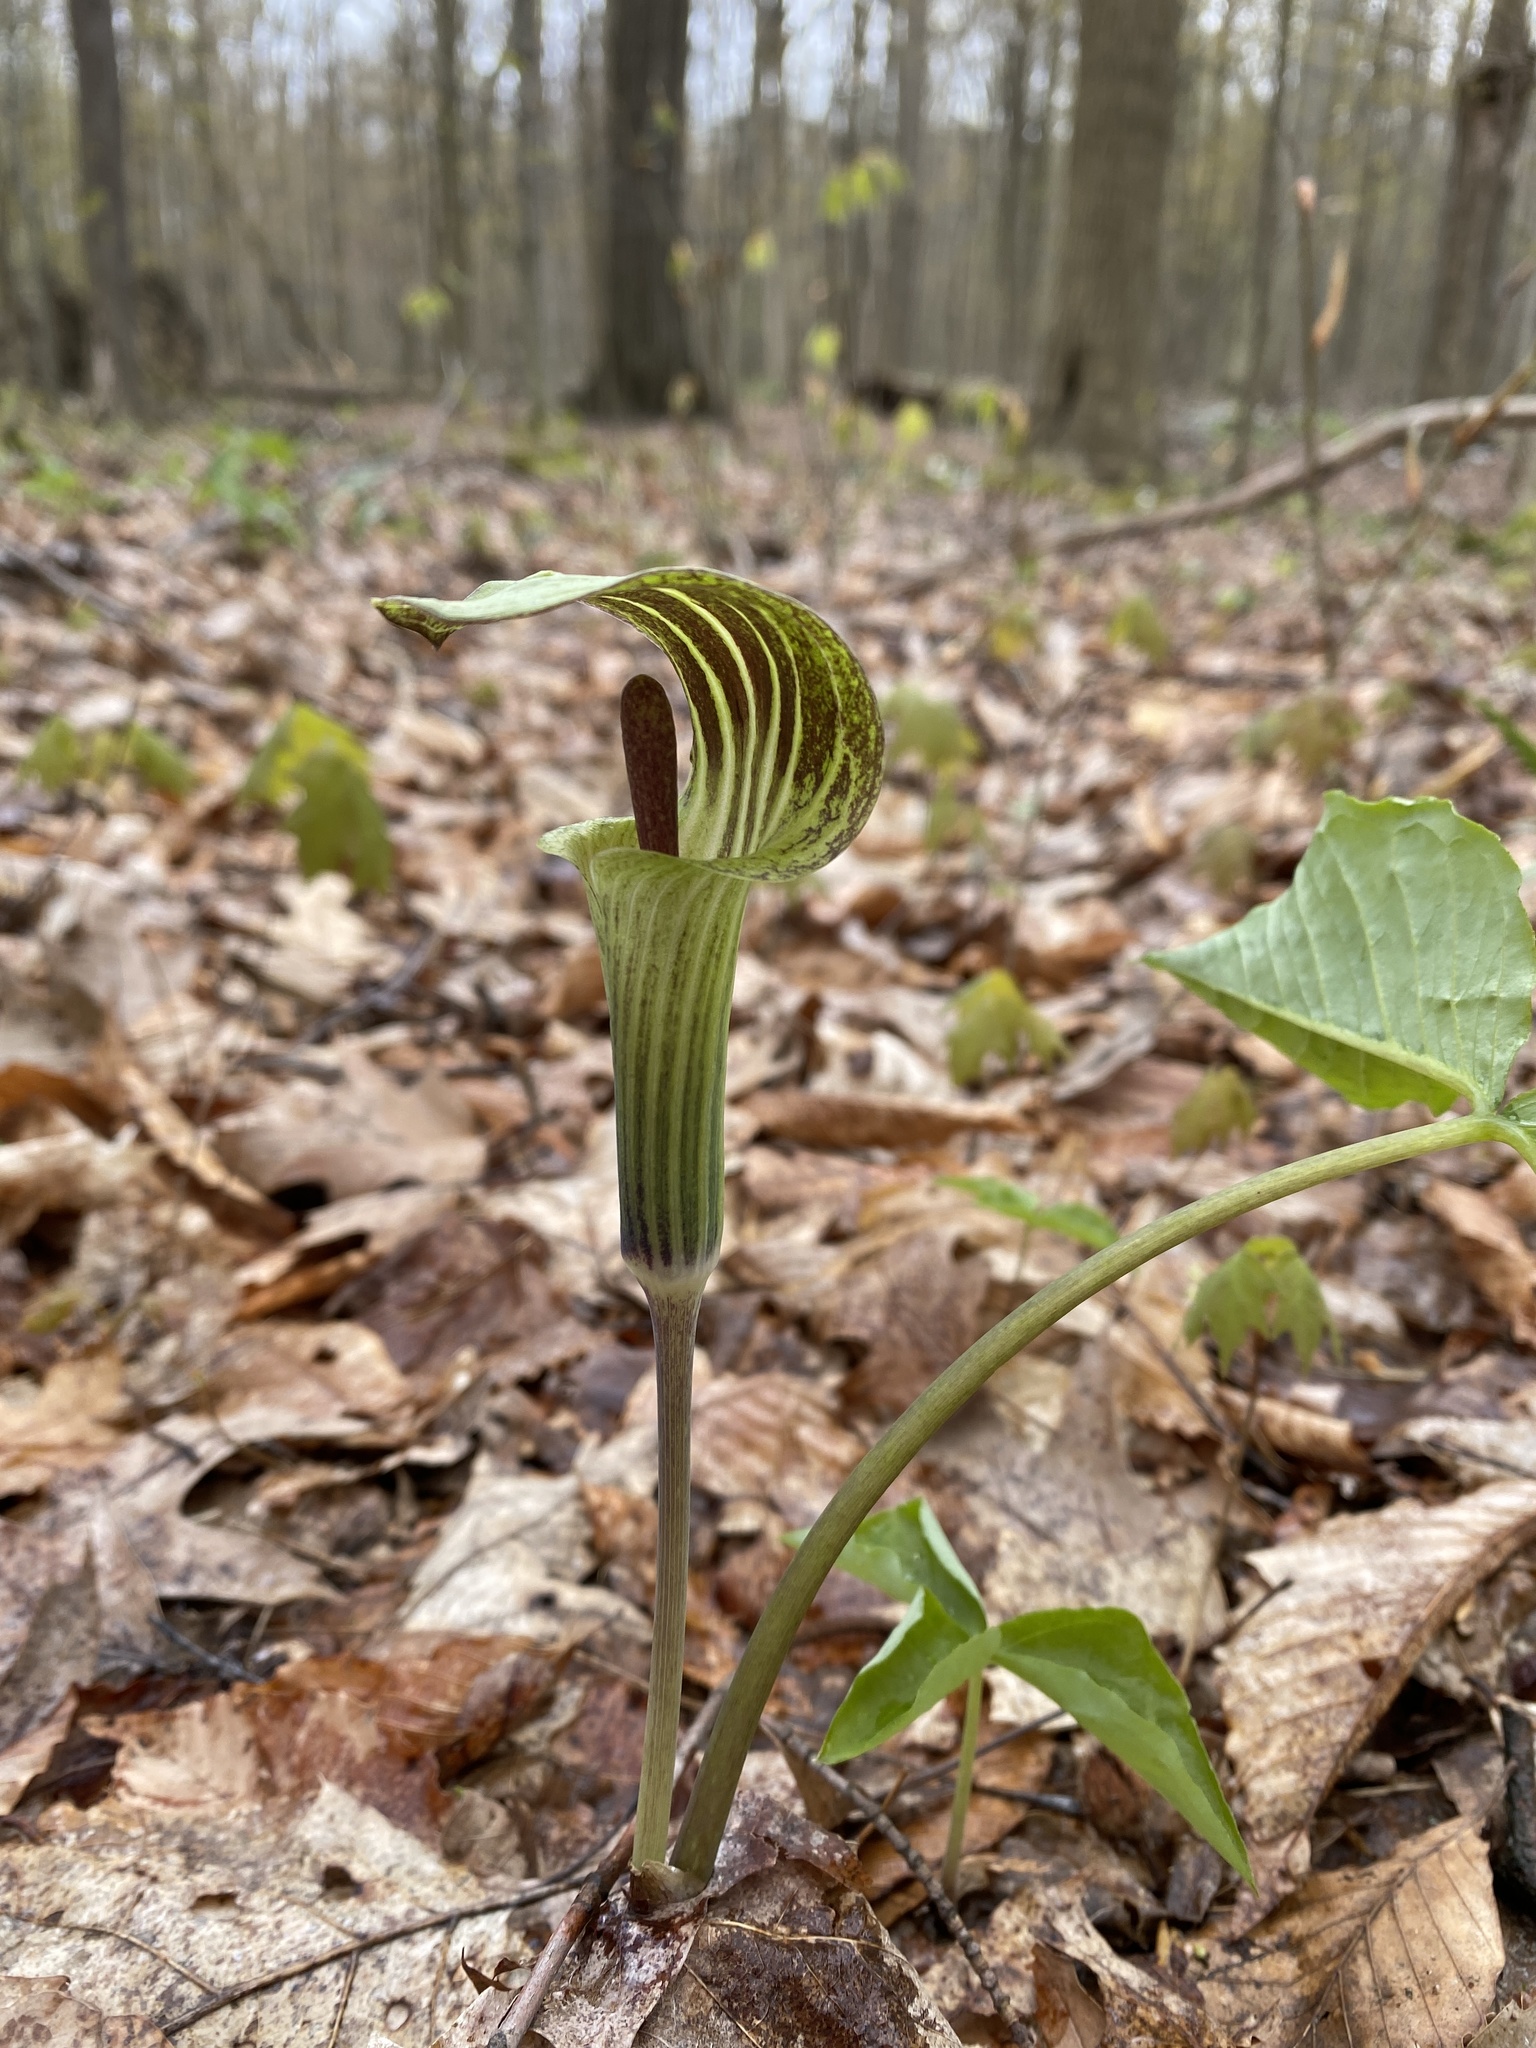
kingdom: Plantae
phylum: Tracheophyta
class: Liliopsida
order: Alismatales
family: Araceae
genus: Arisaema
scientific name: Arisaema triphyllum
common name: Jack-in-the-pulpit
